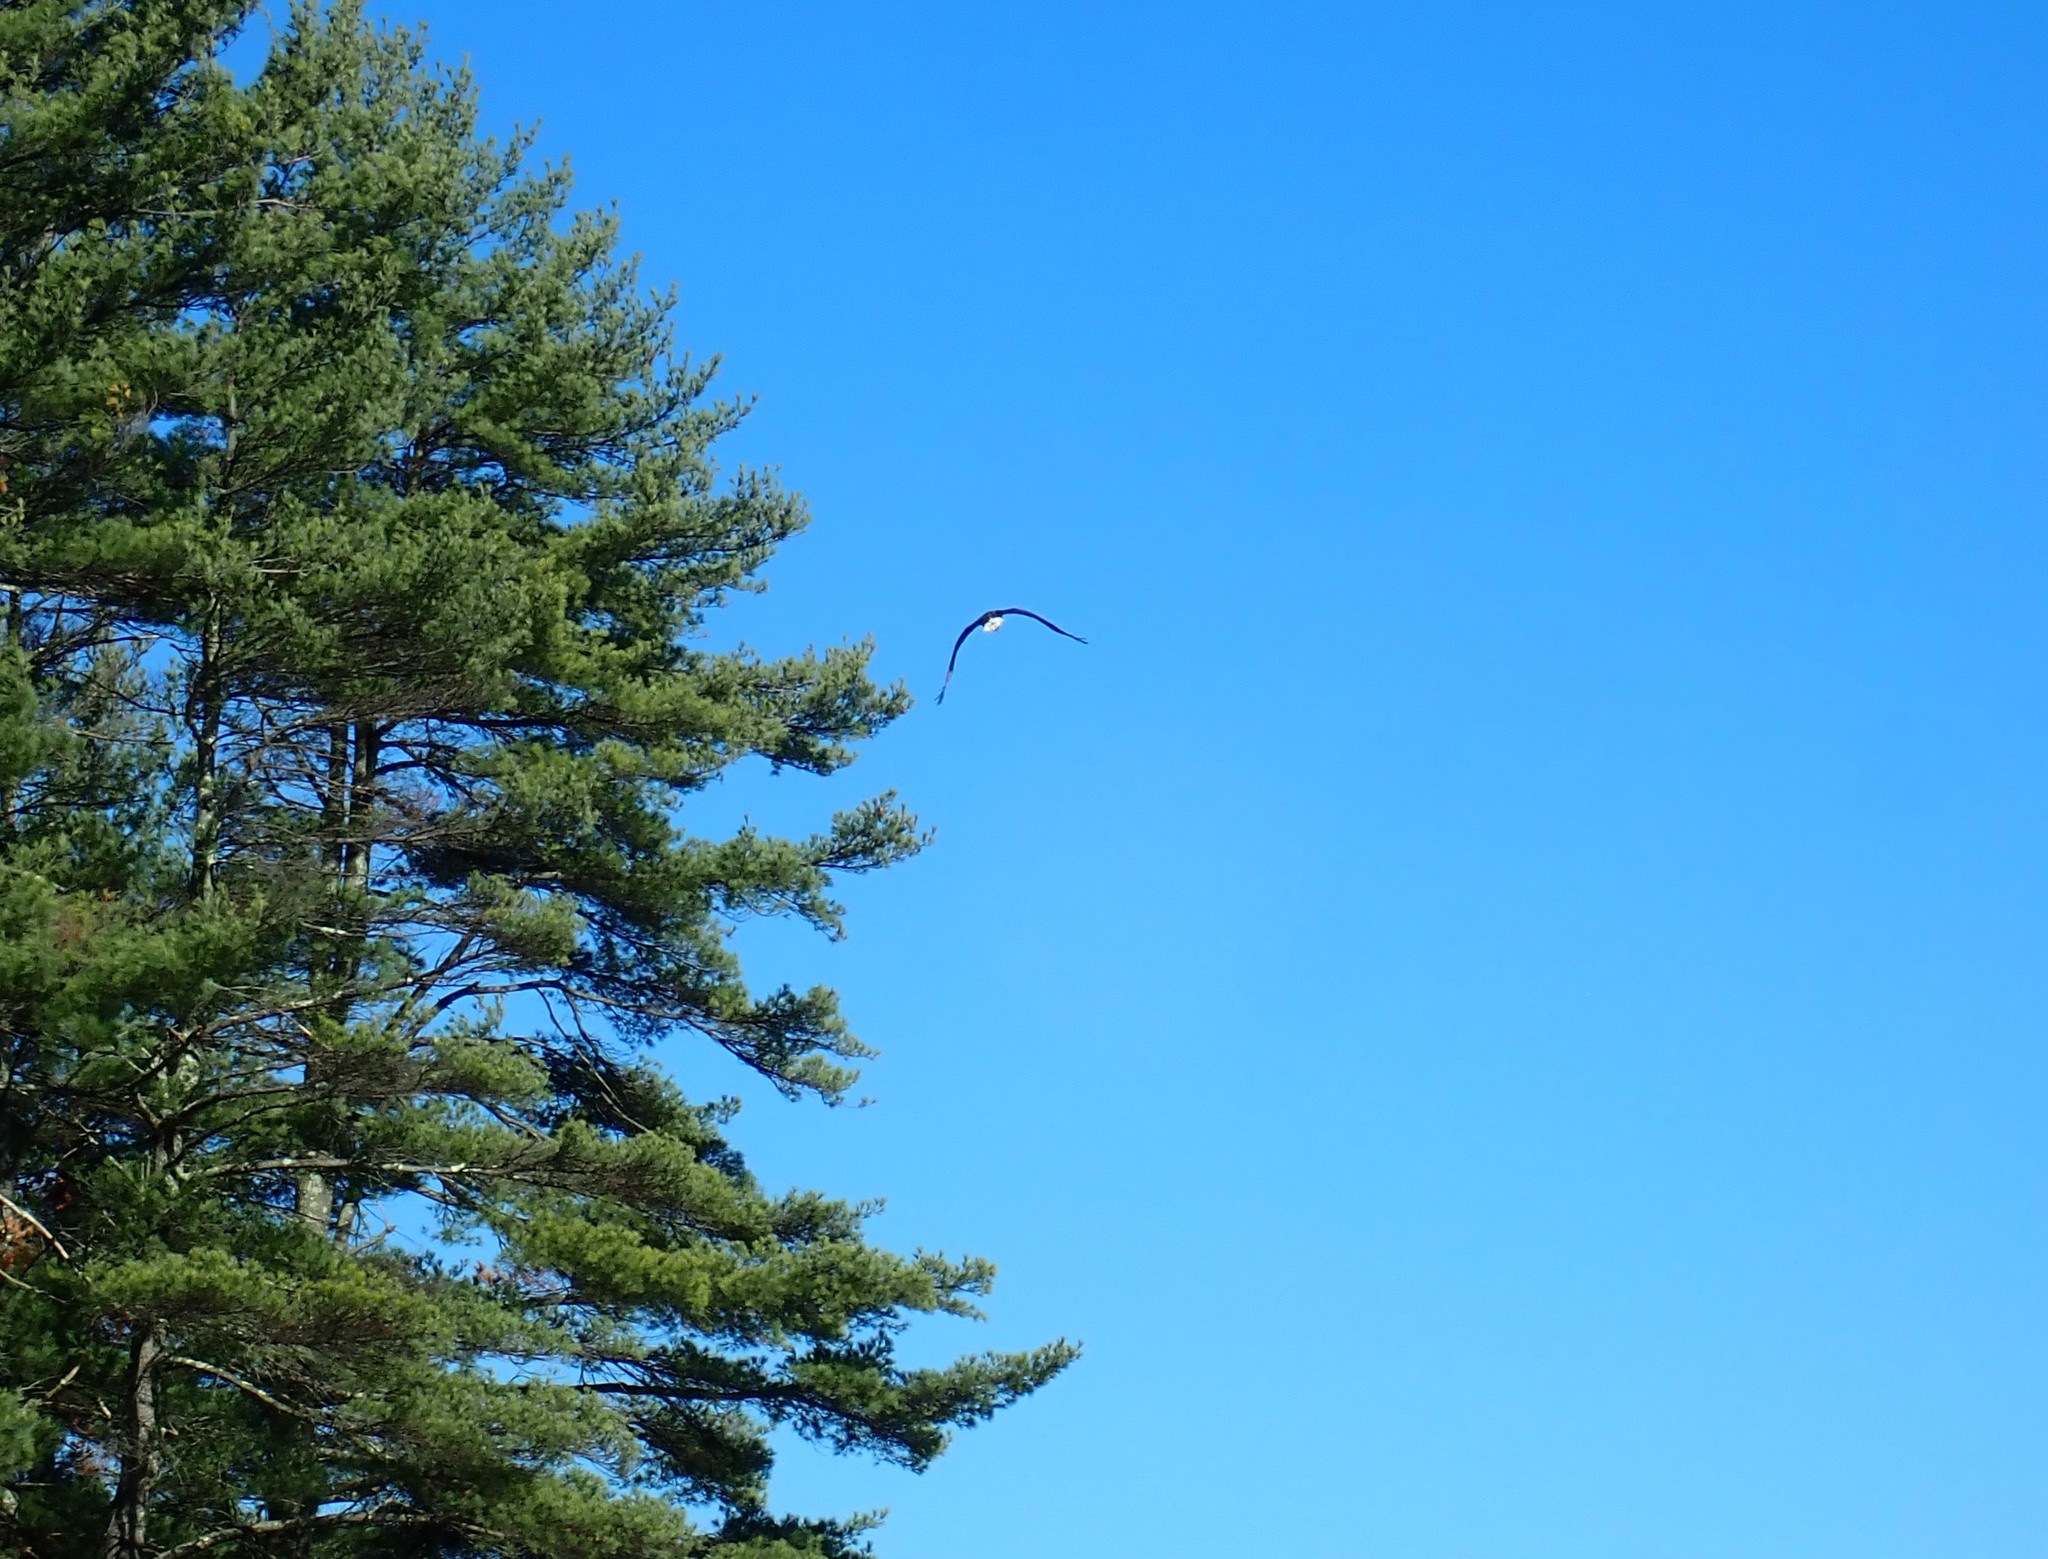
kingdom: Animalia
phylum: Chordata
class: Aves
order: Accipitriformes
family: Accipitridae
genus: Haliaeetus
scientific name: Haliaeetus leucocephalus
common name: Bald eagle
